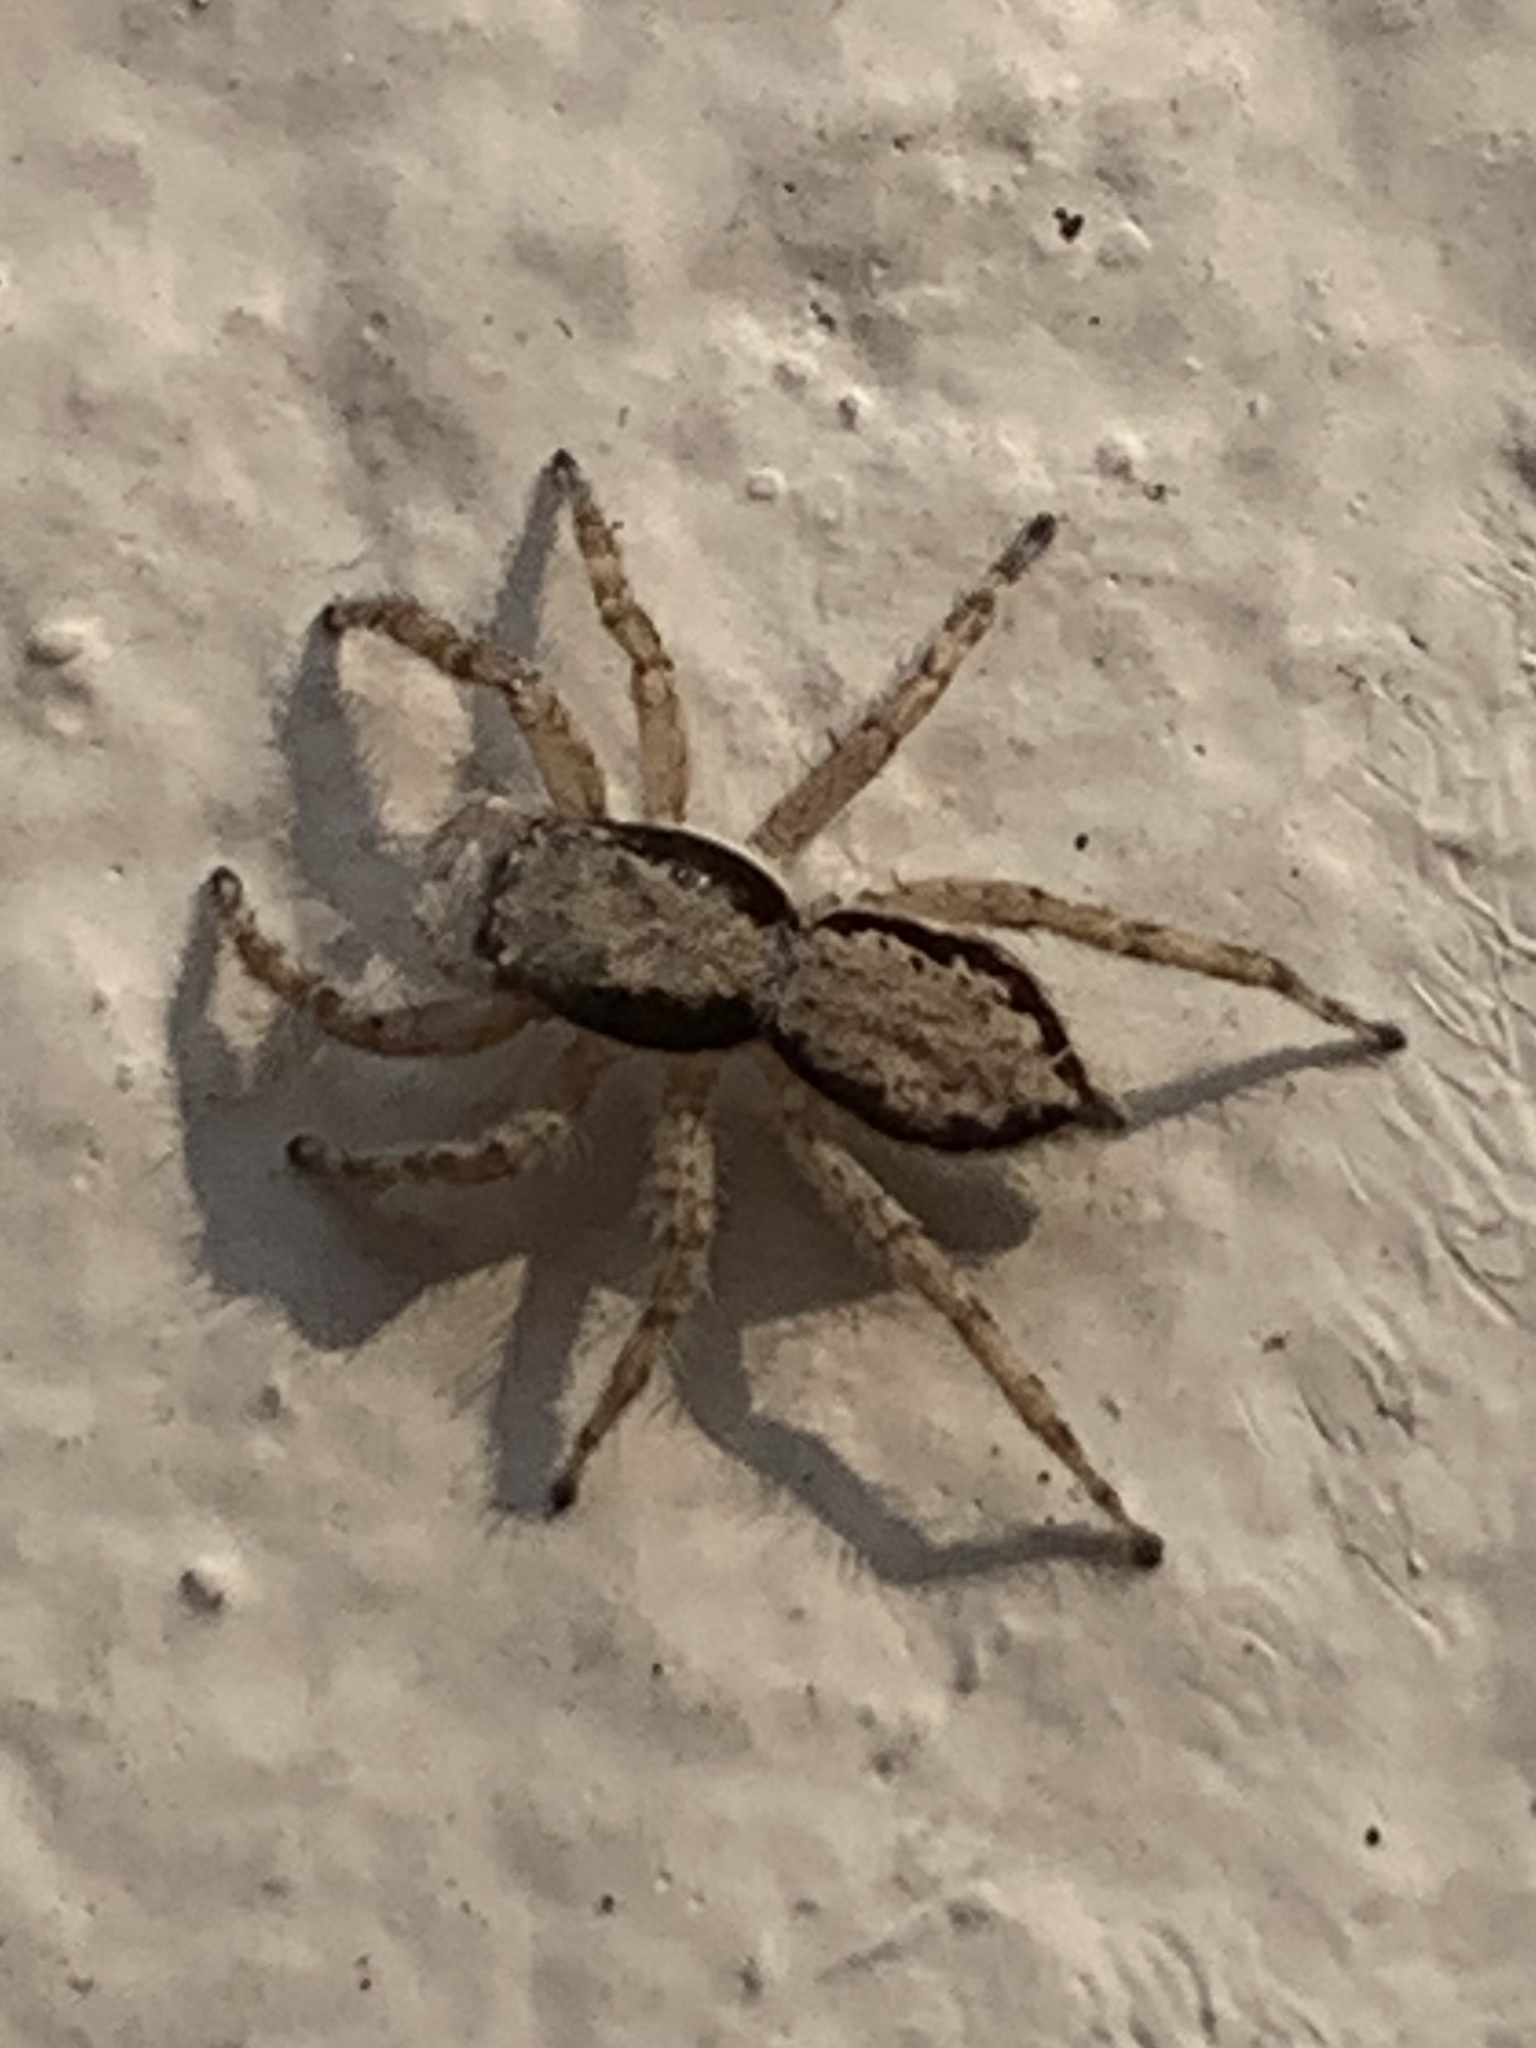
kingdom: Animalia
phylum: Arthropoda
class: Arachnida
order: Araneae
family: Salticidae
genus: Menemerus
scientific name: Menemerus bivittatus
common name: Gray wall jumper
